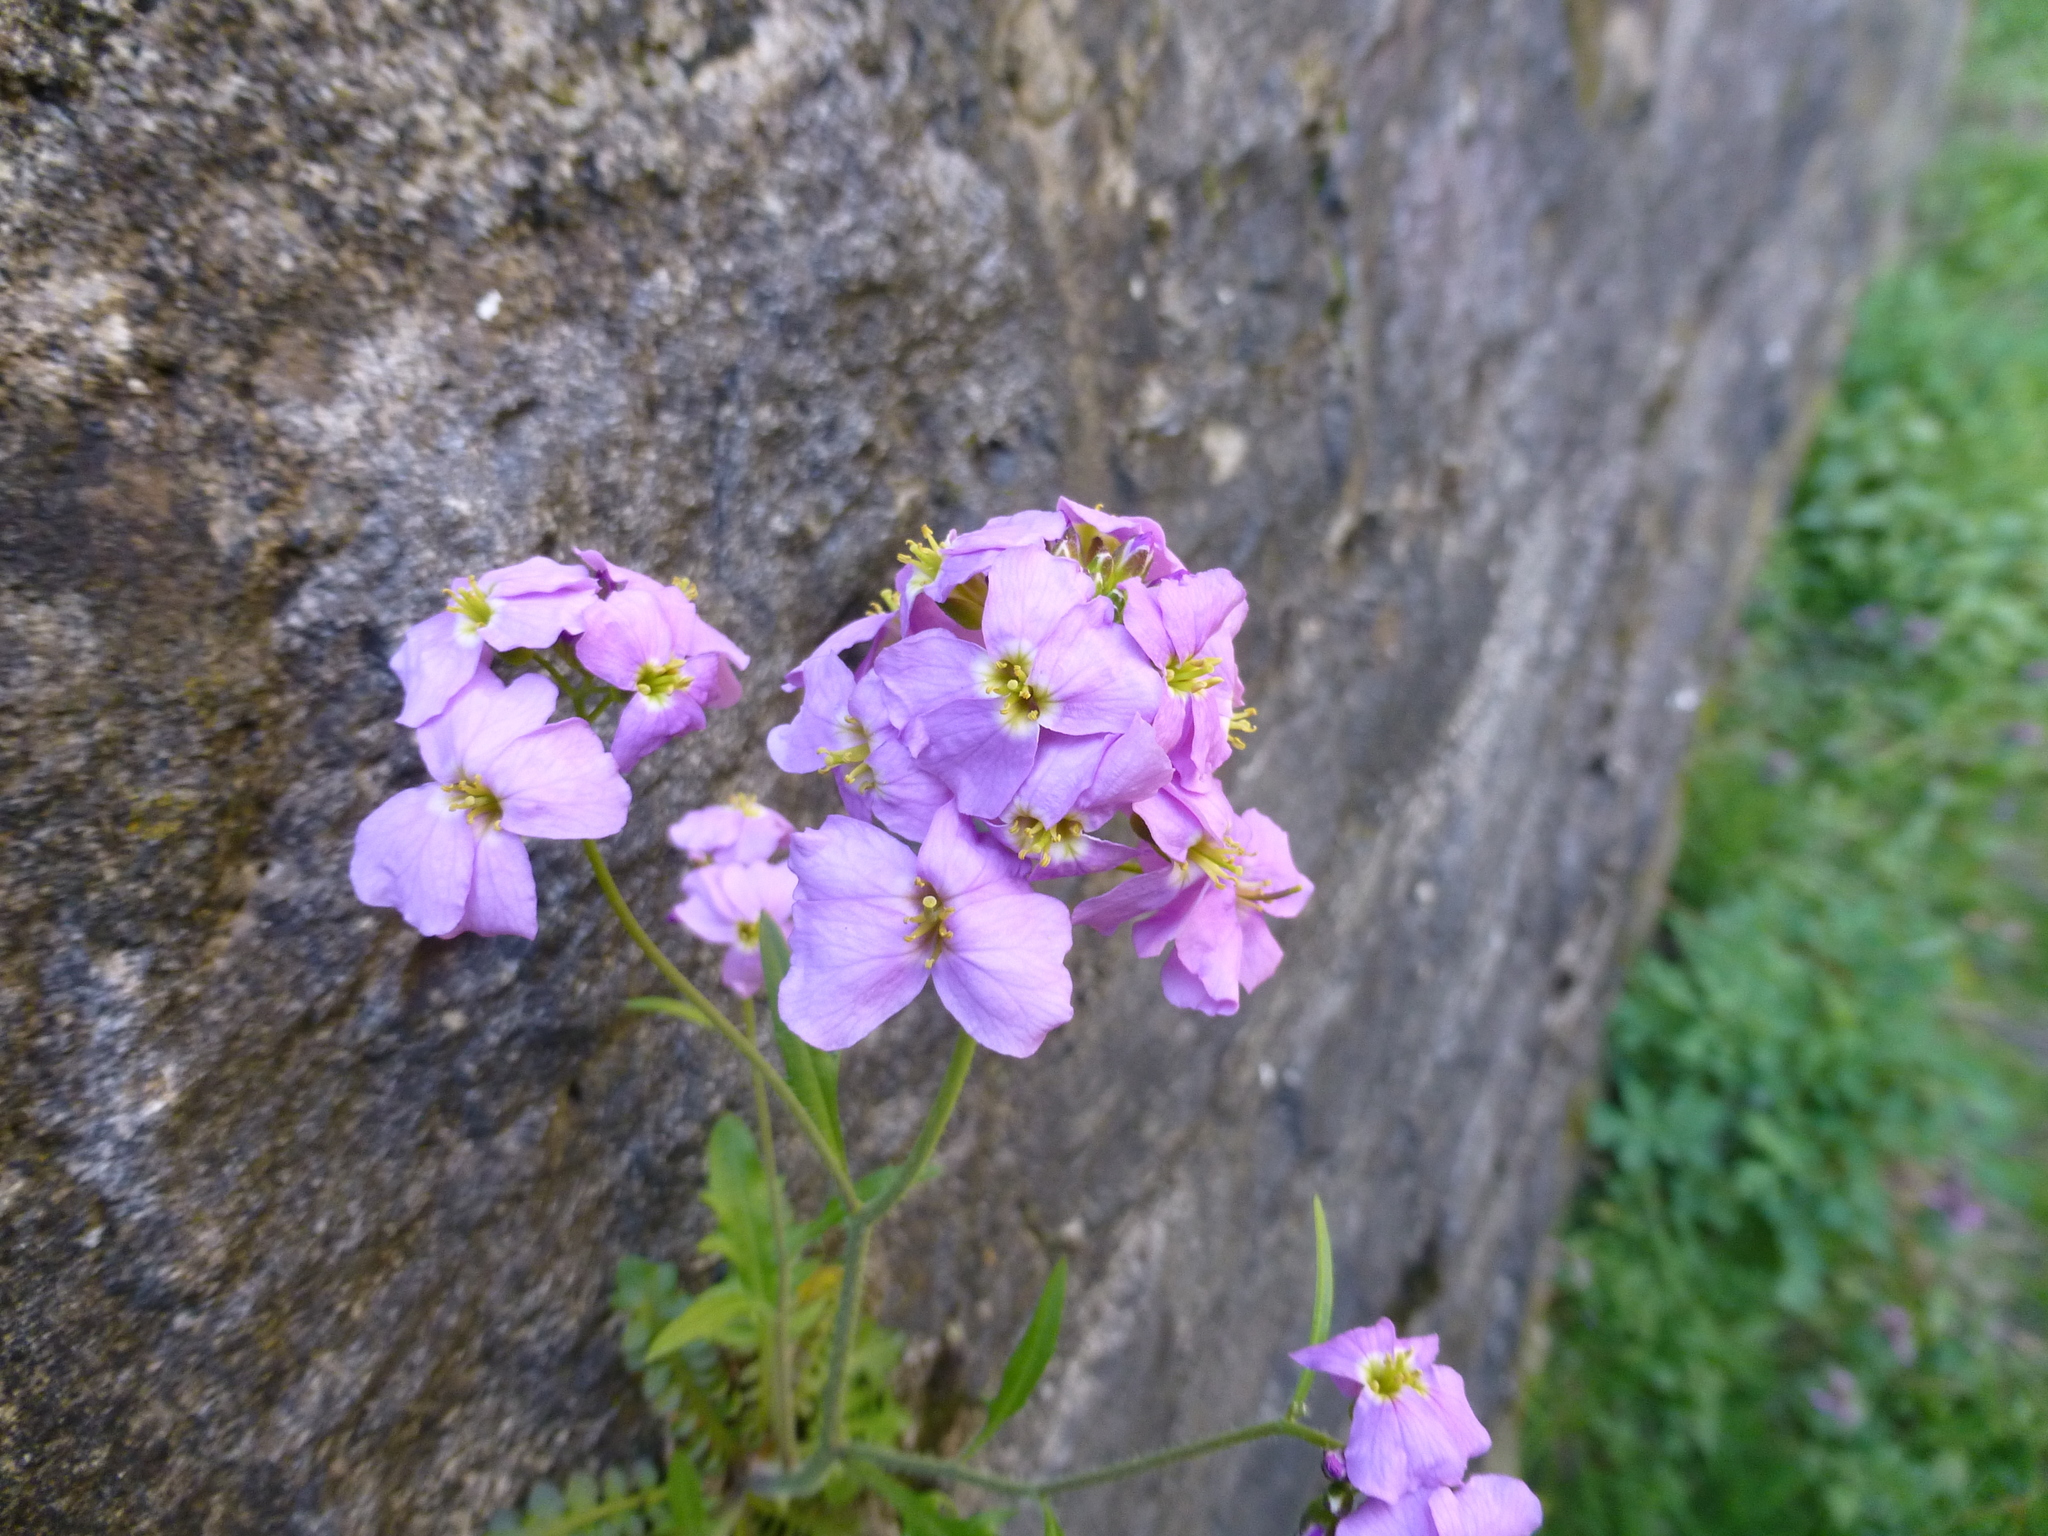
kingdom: Plantae
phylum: Tracheophyta
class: Magnoliopsida
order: Brassicales
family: Brassicaceae
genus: Arabidopsis
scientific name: Arabidopsis arenosa
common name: Sand rock-cress
